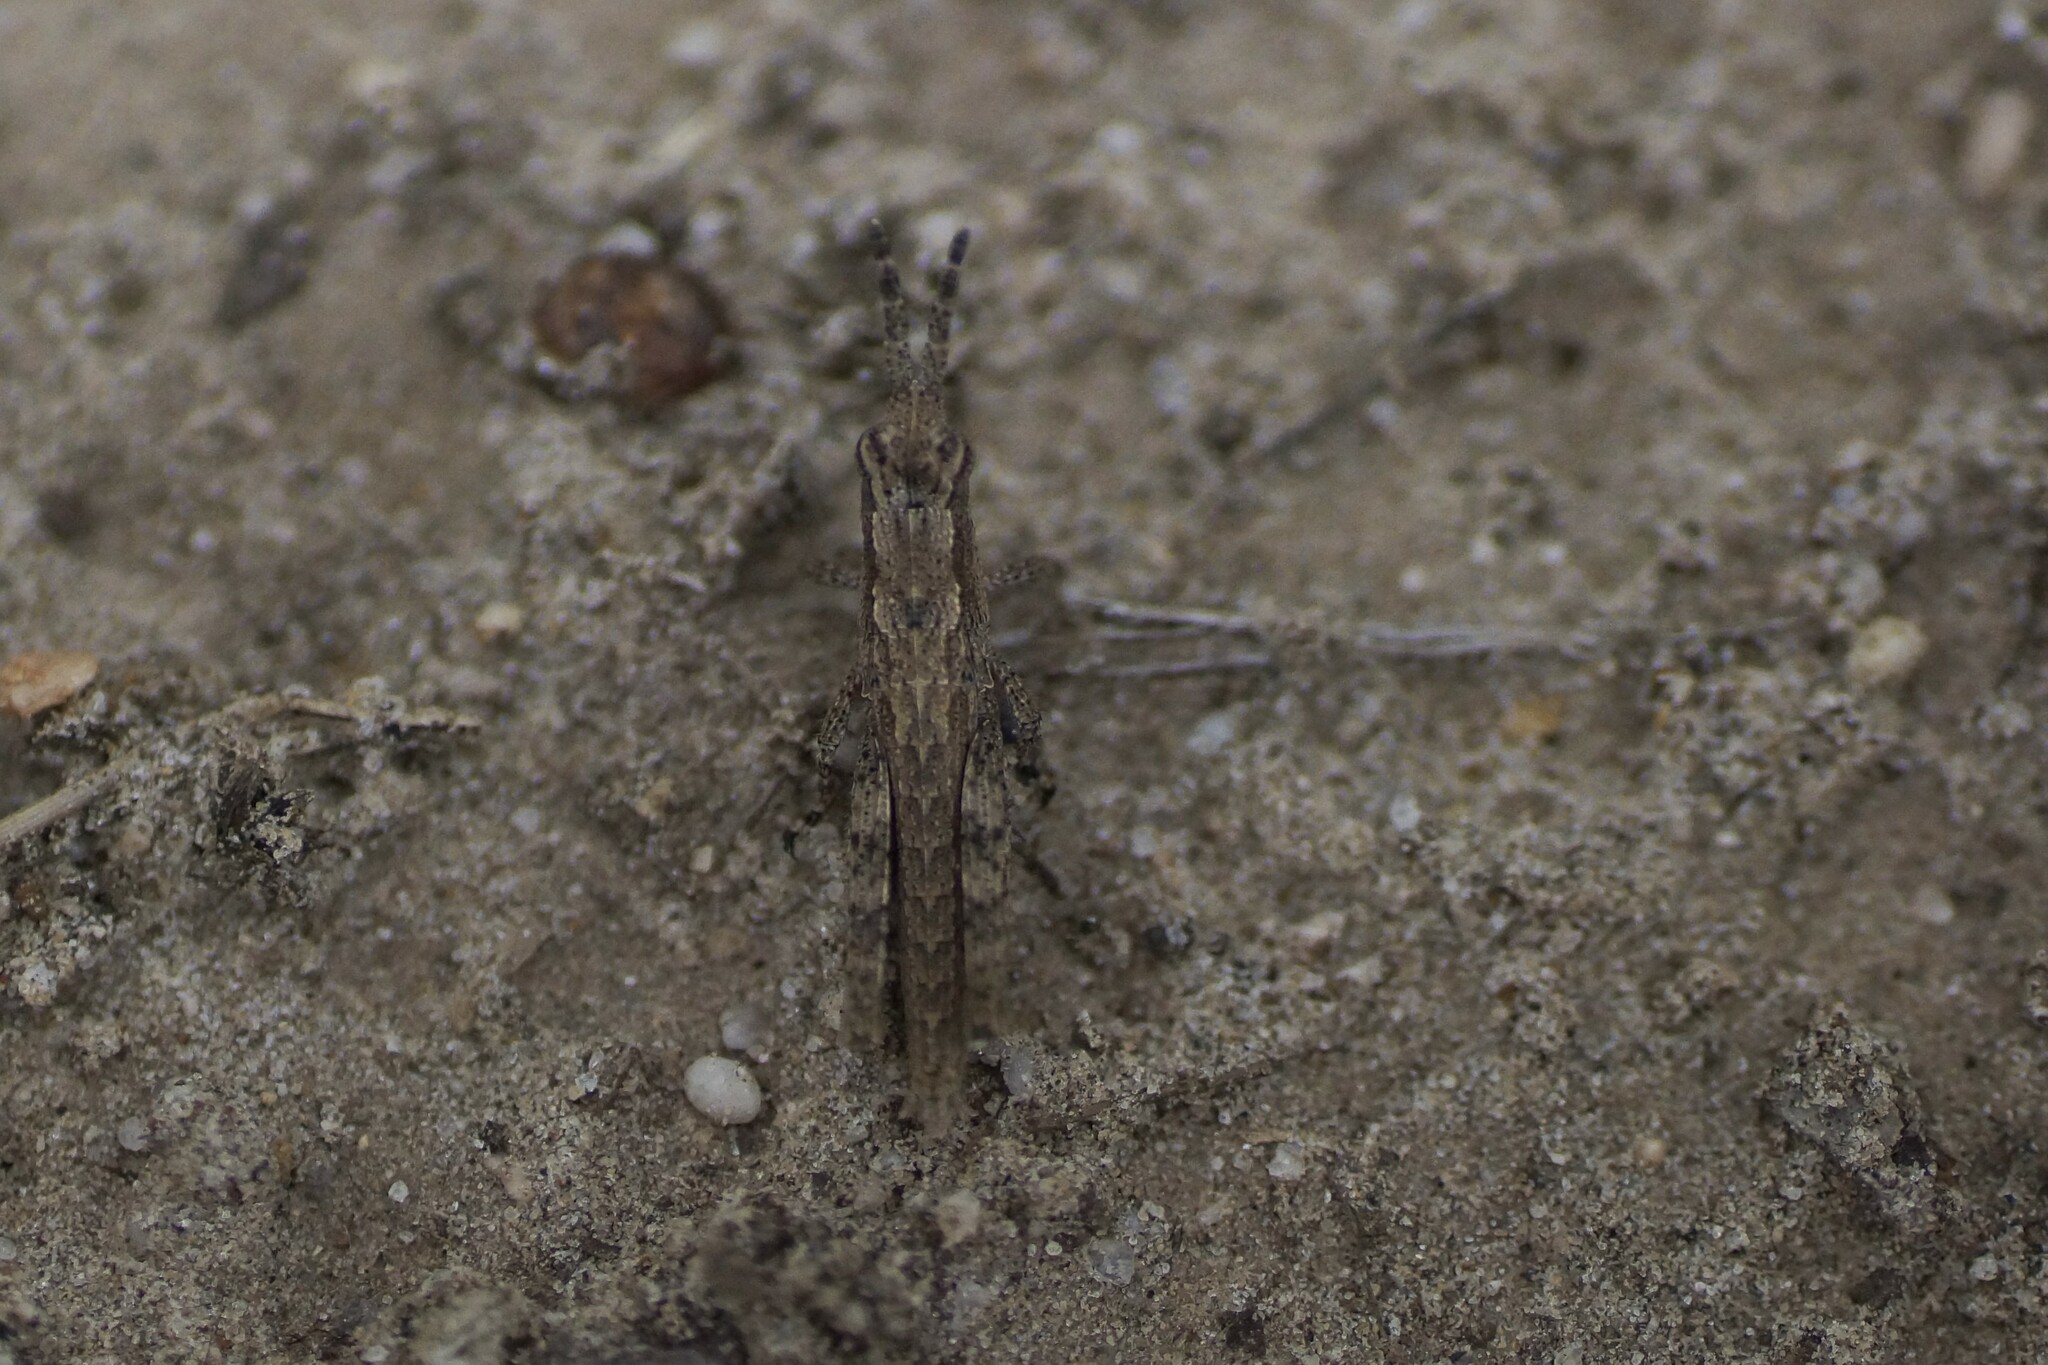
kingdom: Animalia
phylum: Arthropoda
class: Insecta
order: Orthoptera
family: Acrididae
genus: Coryphistes
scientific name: Coryphistes ruricola
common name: Bark-mimicking grasshopper
